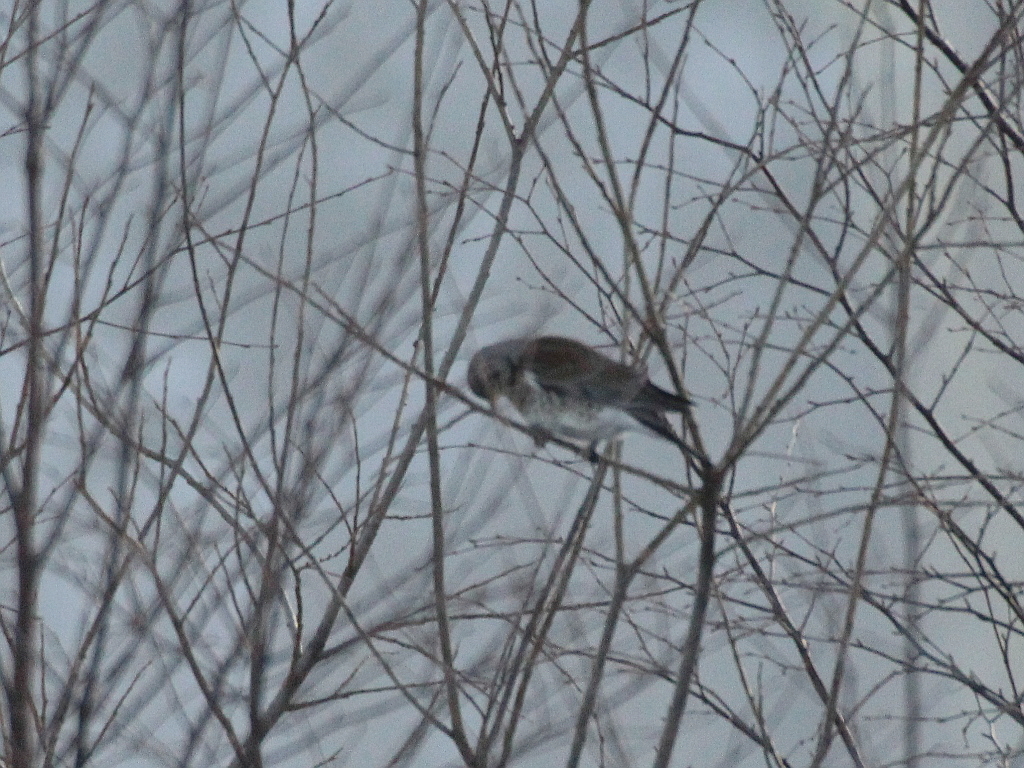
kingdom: Animalia
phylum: Chordata
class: Aves
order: Passeriformes
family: Turdidae
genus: Turdus
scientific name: Turdus pilaris
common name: Fieldfare
